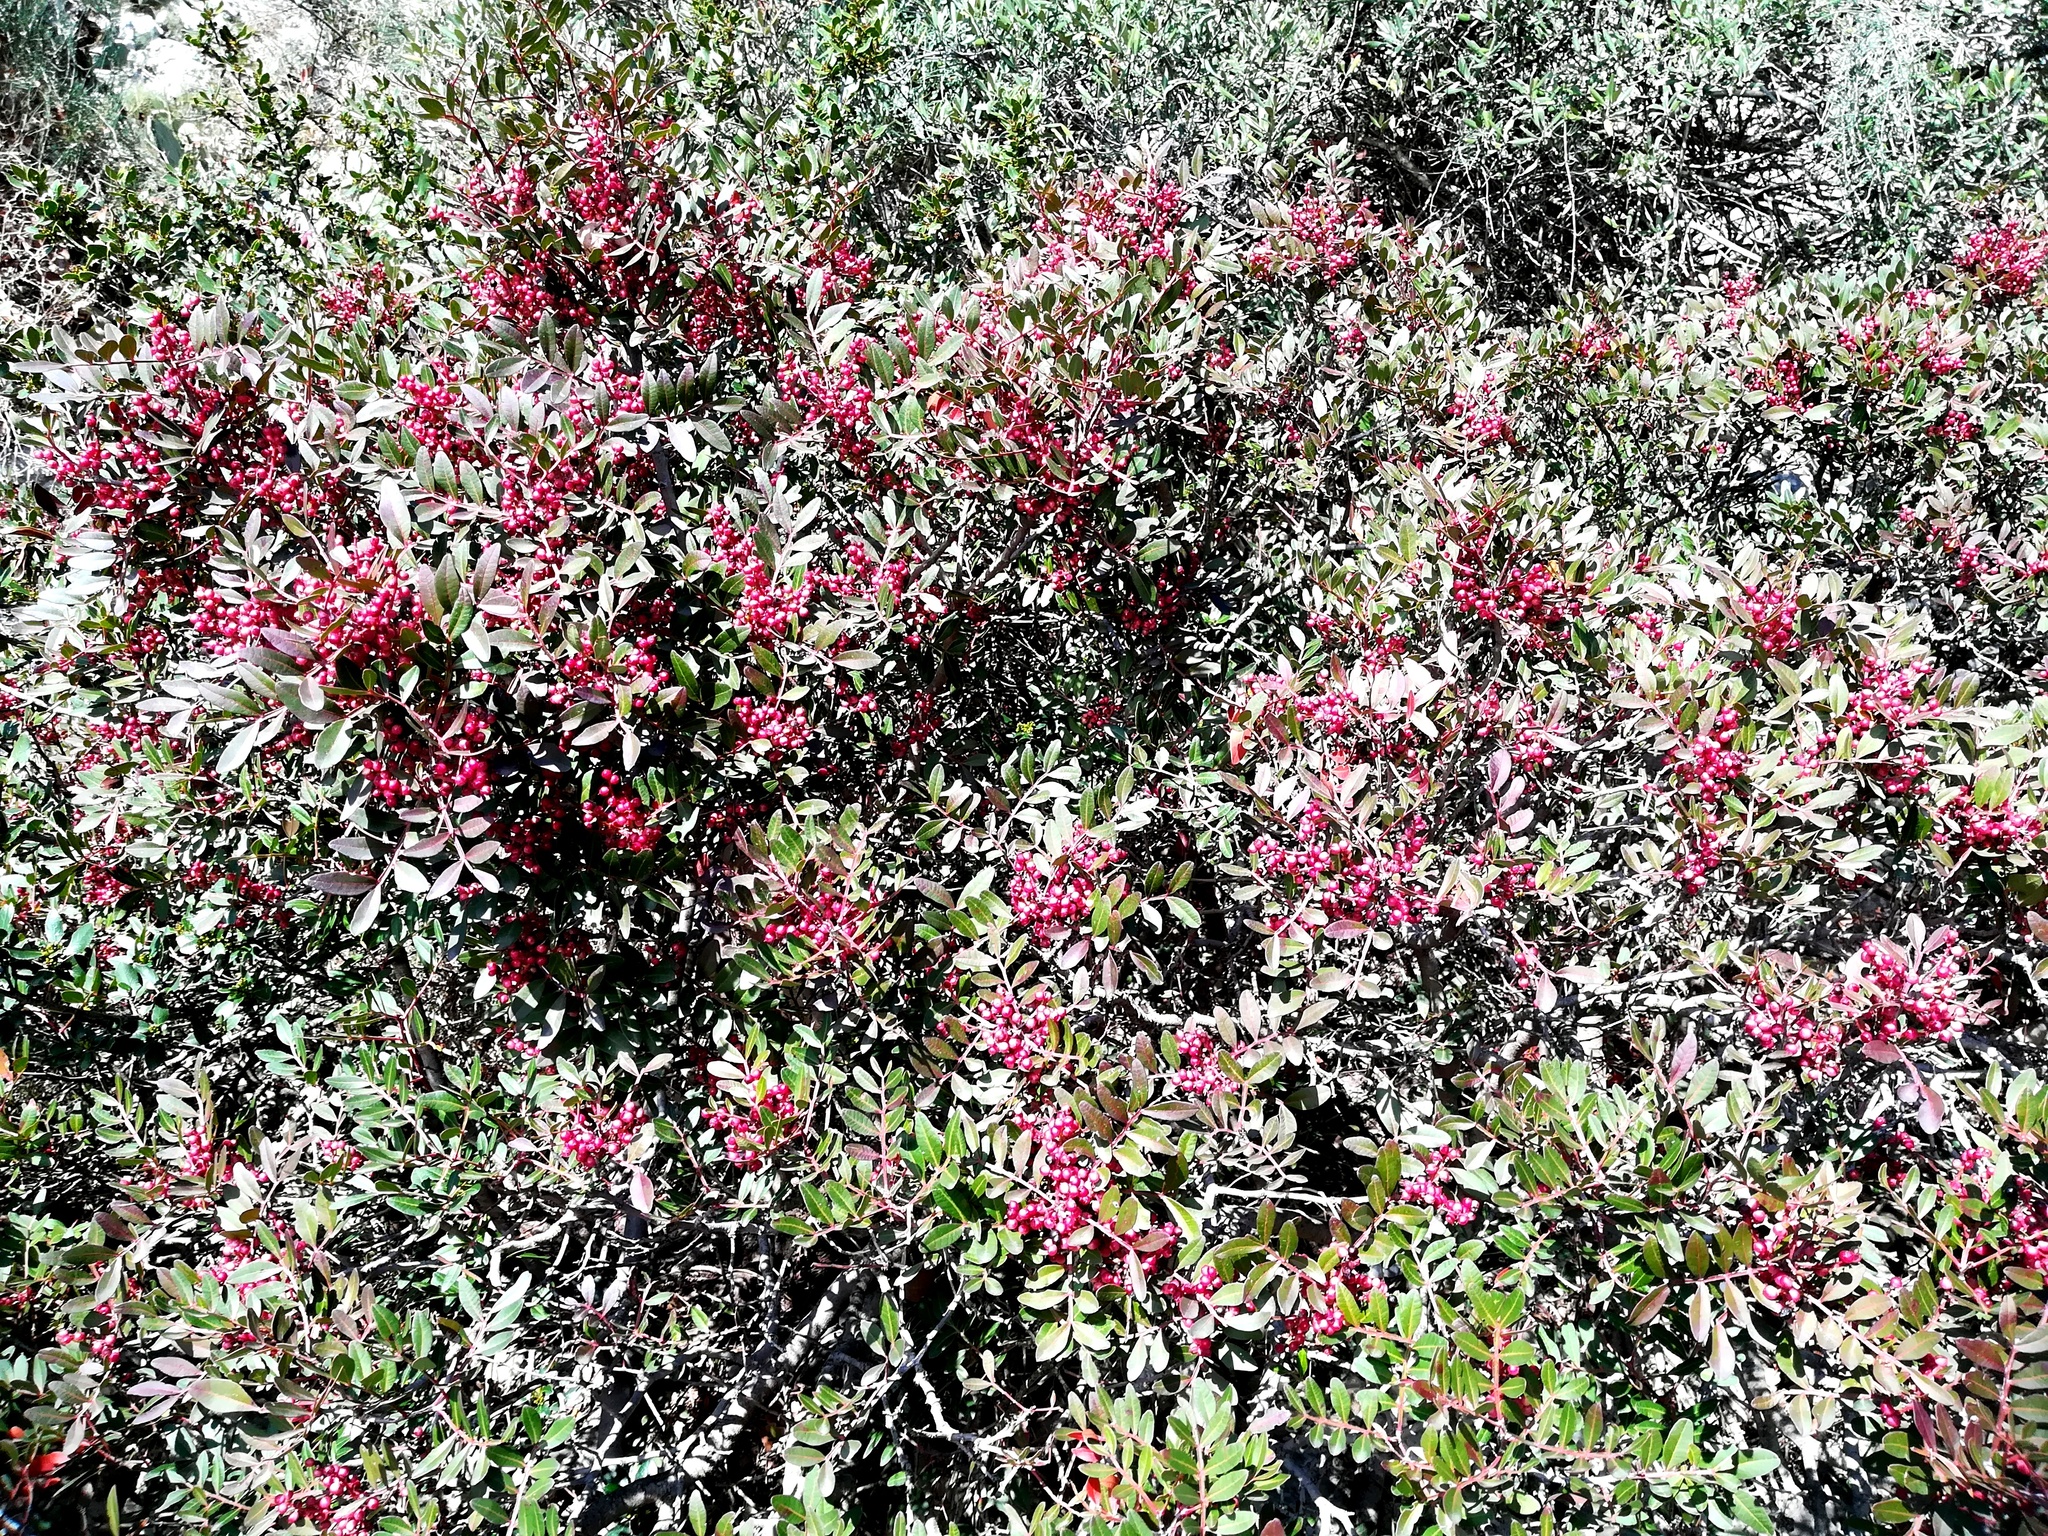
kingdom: Plantae
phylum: Tracheophyta
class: Magnoliopsida
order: Sapindales
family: Anacardiaceae
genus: Pistacia
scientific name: Pistacia lentiscus
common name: Lentisk
